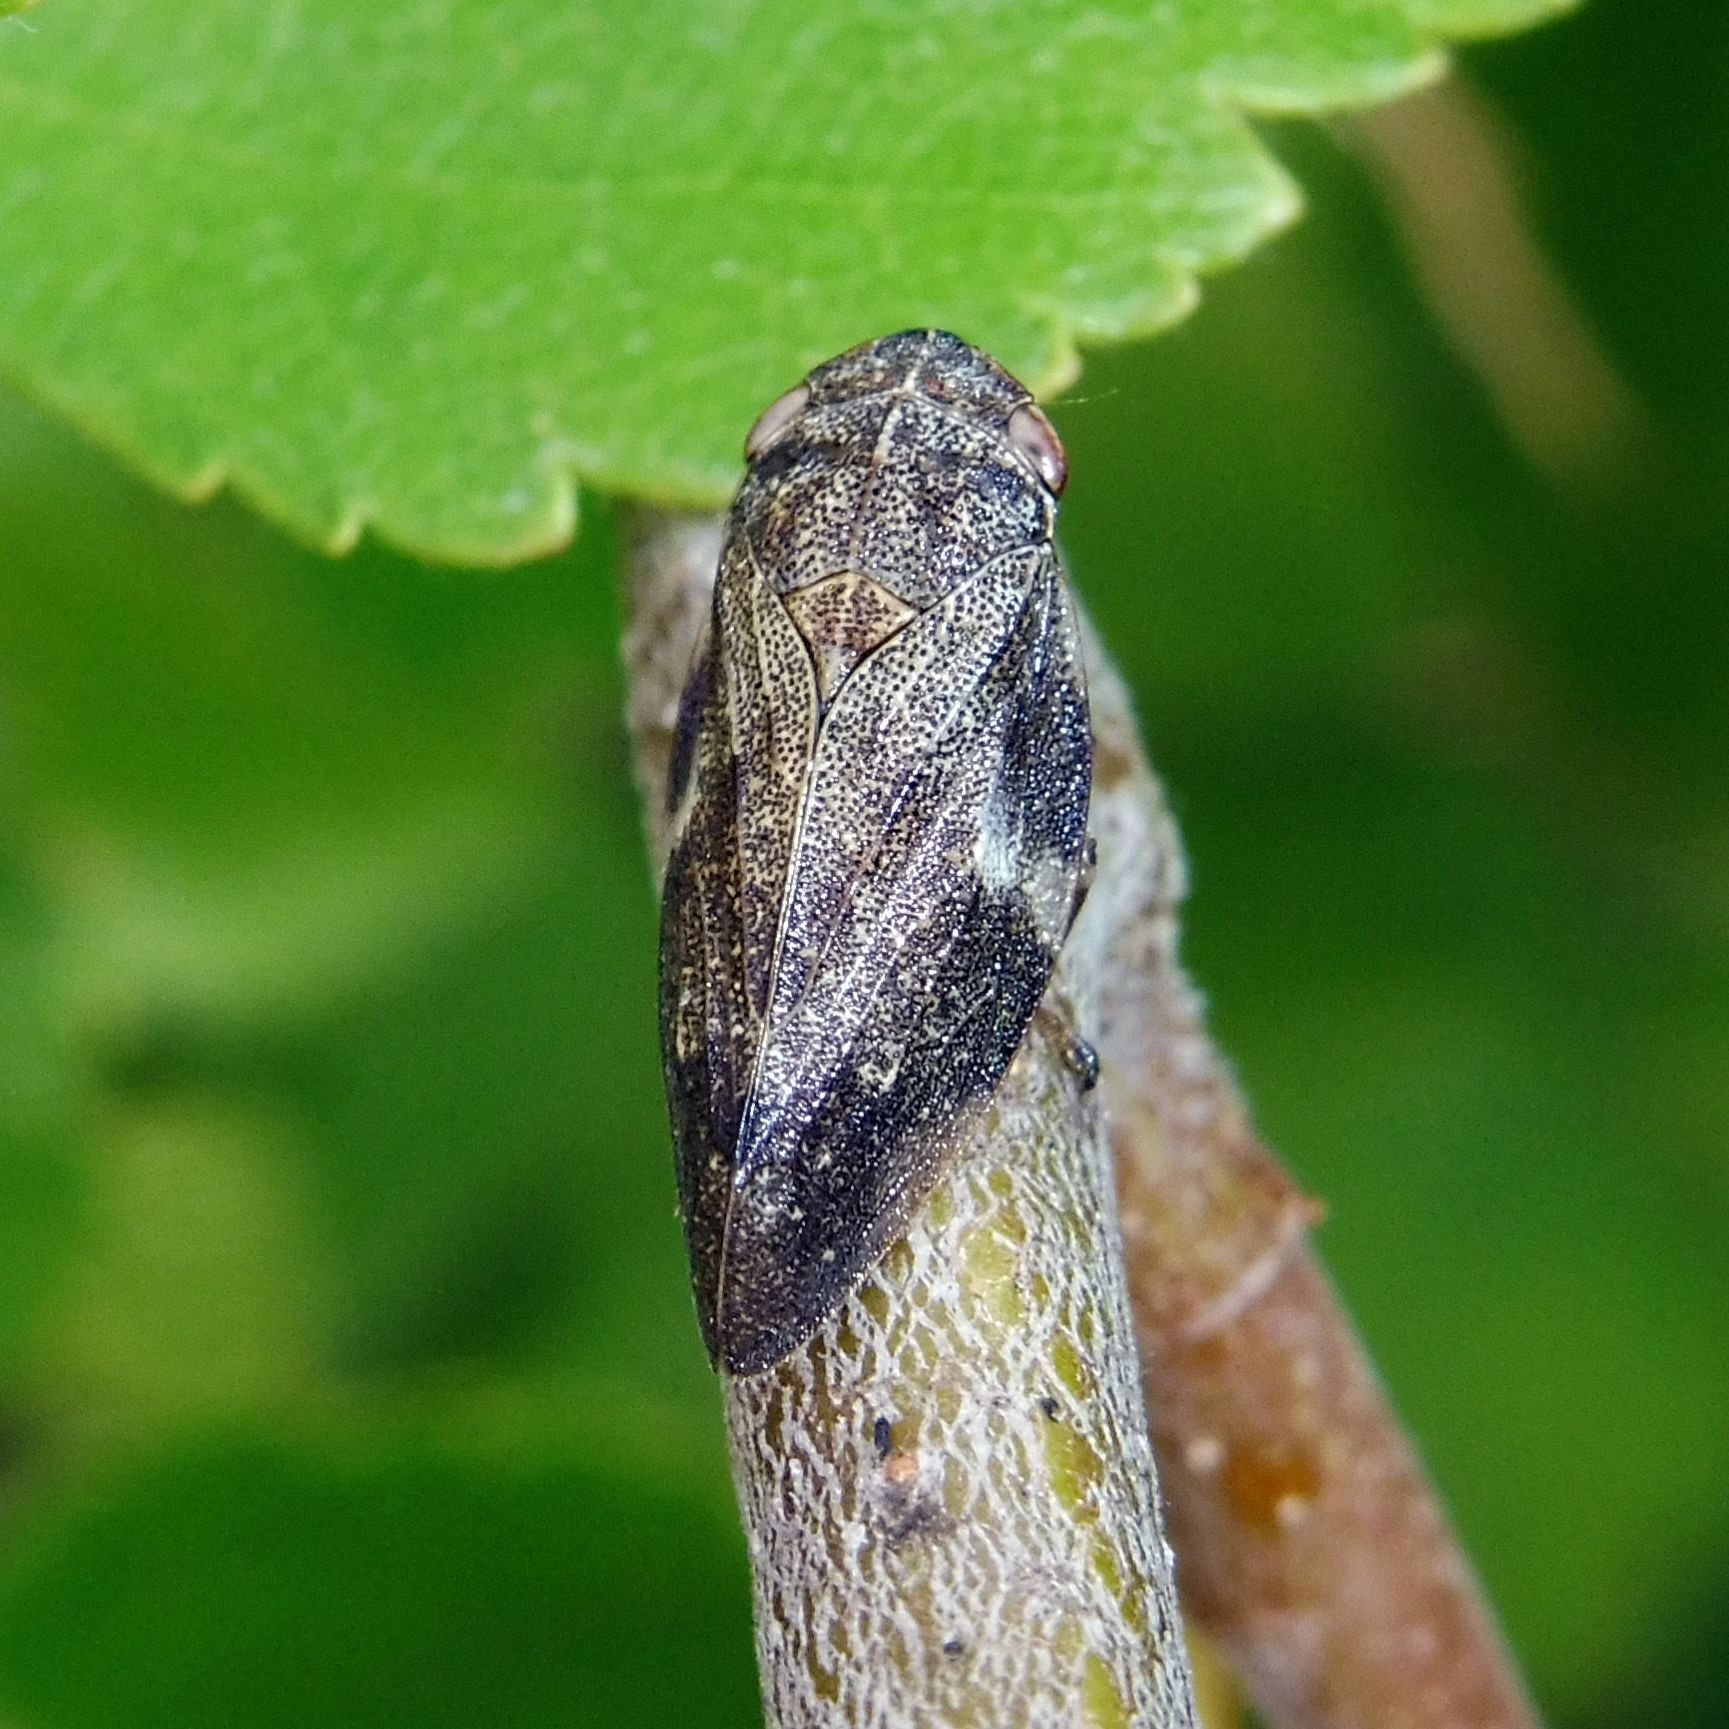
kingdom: Animalia
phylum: Arthropoda
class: Insecta
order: Hemiptera
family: Aphrophoridae
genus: Aphrophora
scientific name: Aphrophora alni
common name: European alder spittlebug
